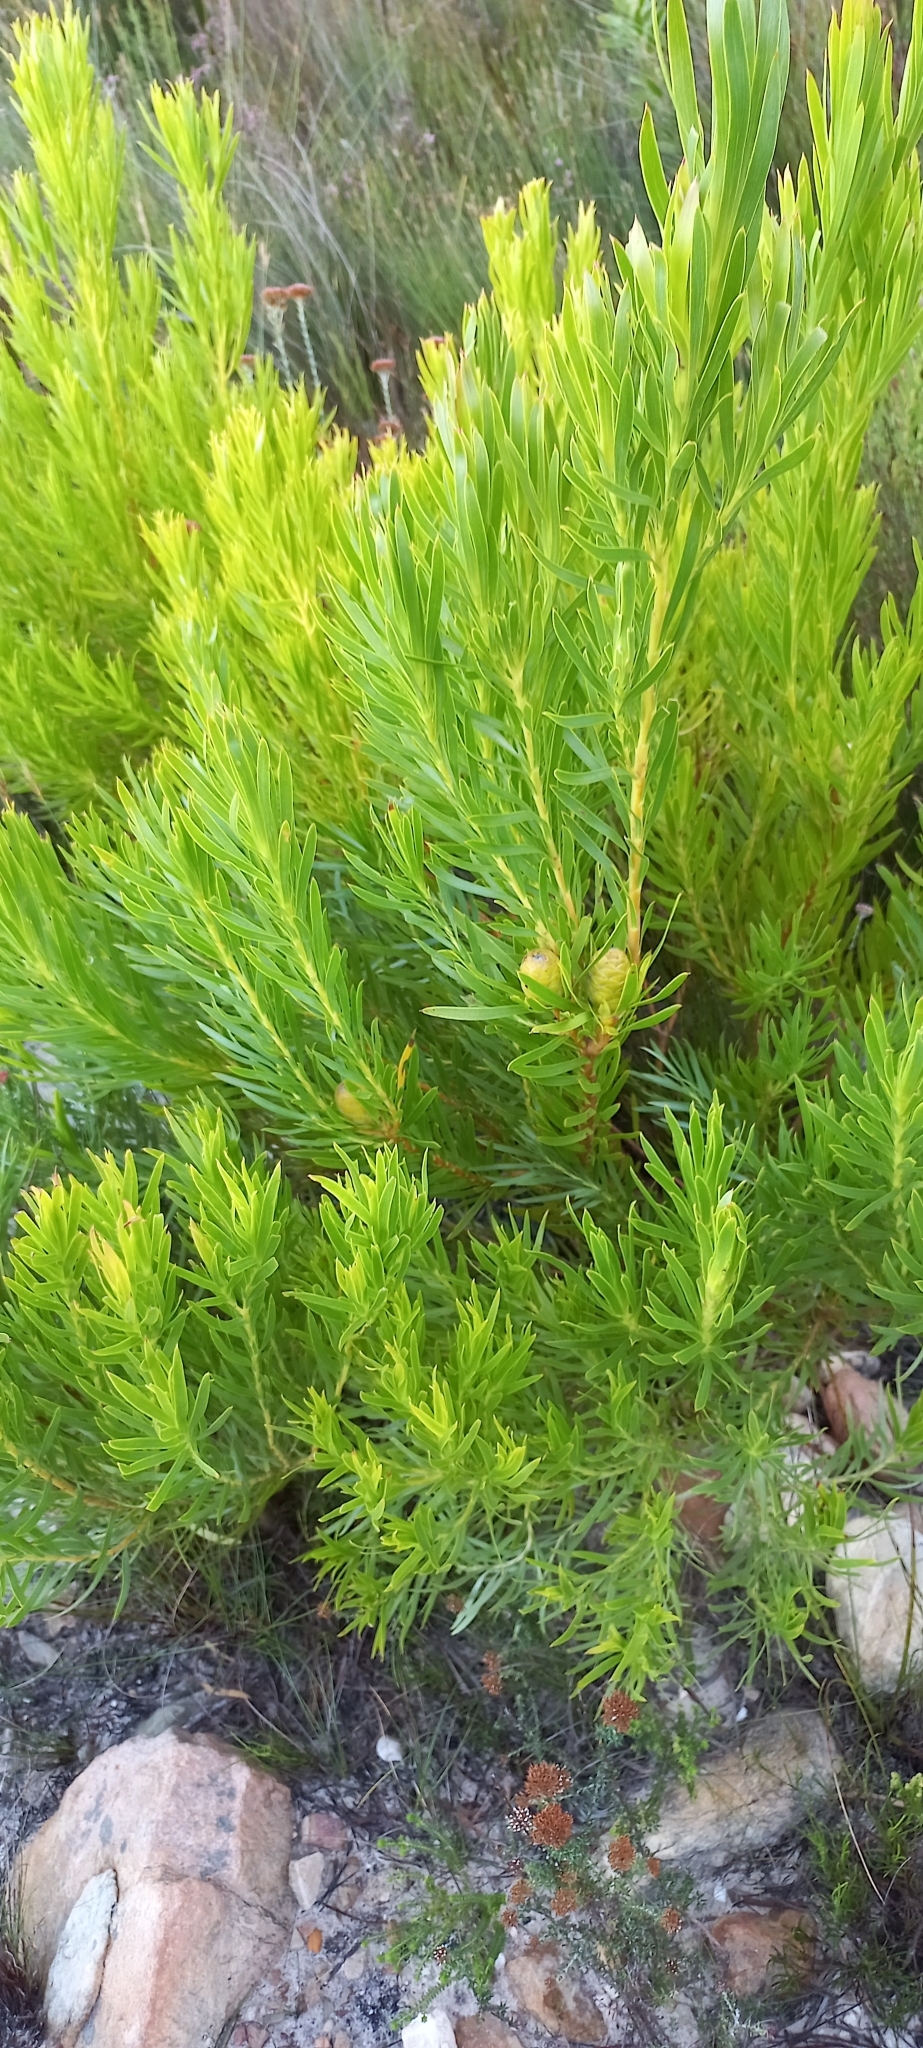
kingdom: Plantae
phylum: Tracheophyta
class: Magnoliopsida
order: Proteales
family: Proteaceae
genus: Leucadendron
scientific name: Leucadendron xanthoconus
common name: Sickle-leaf conebush
